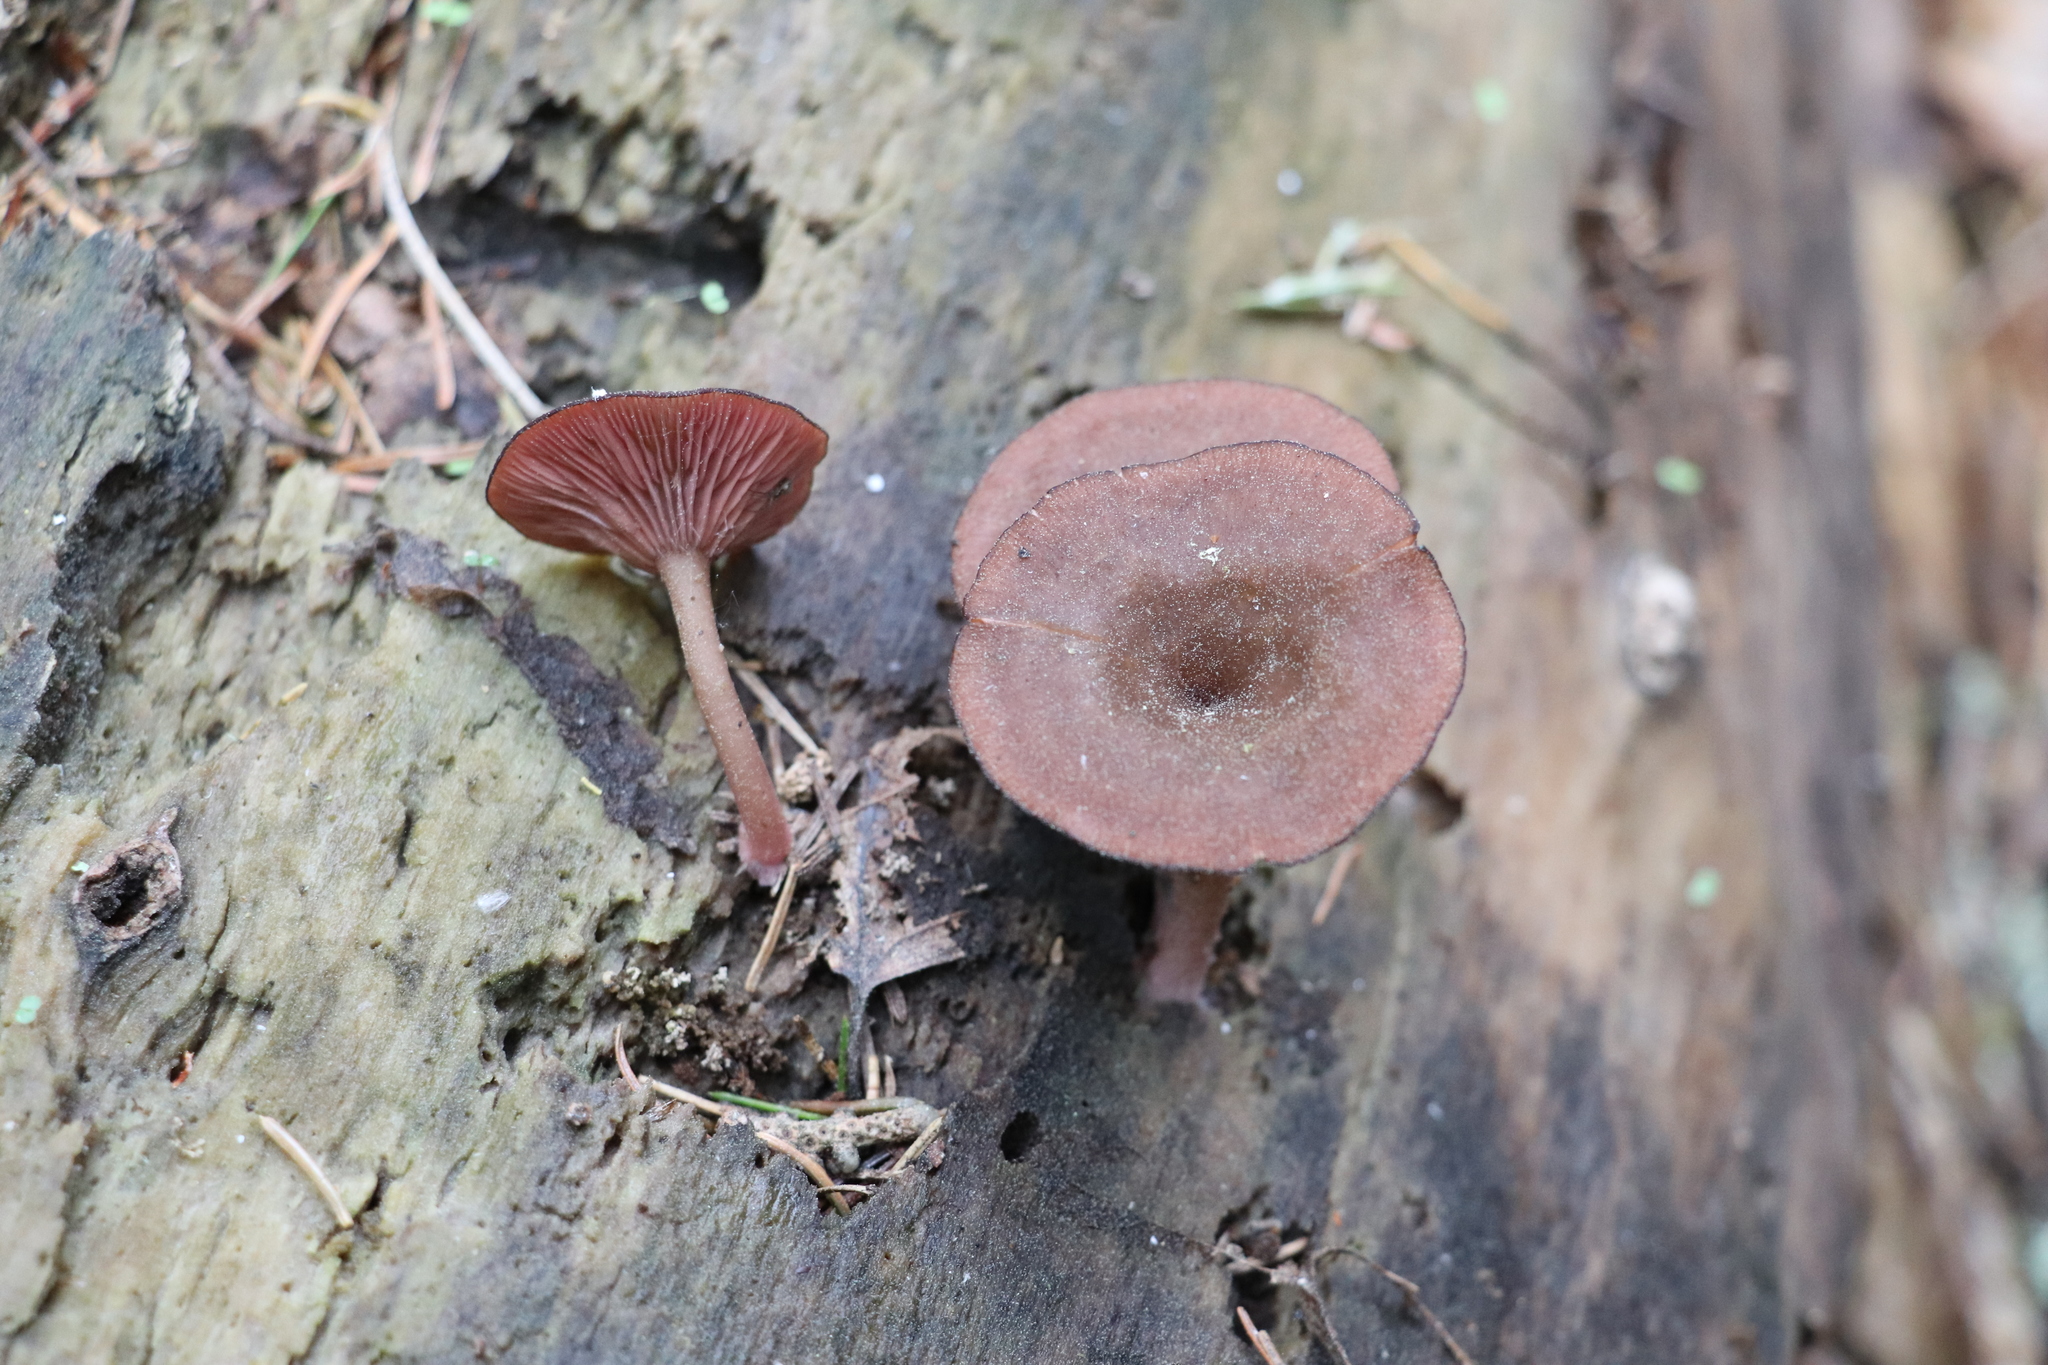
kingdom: Fungi
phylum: Basidiomycota
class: Agaricomycetes
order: Agaricales
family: Hygrophoraceae
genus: Arrhenia
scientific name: Arrhenia discorosea
